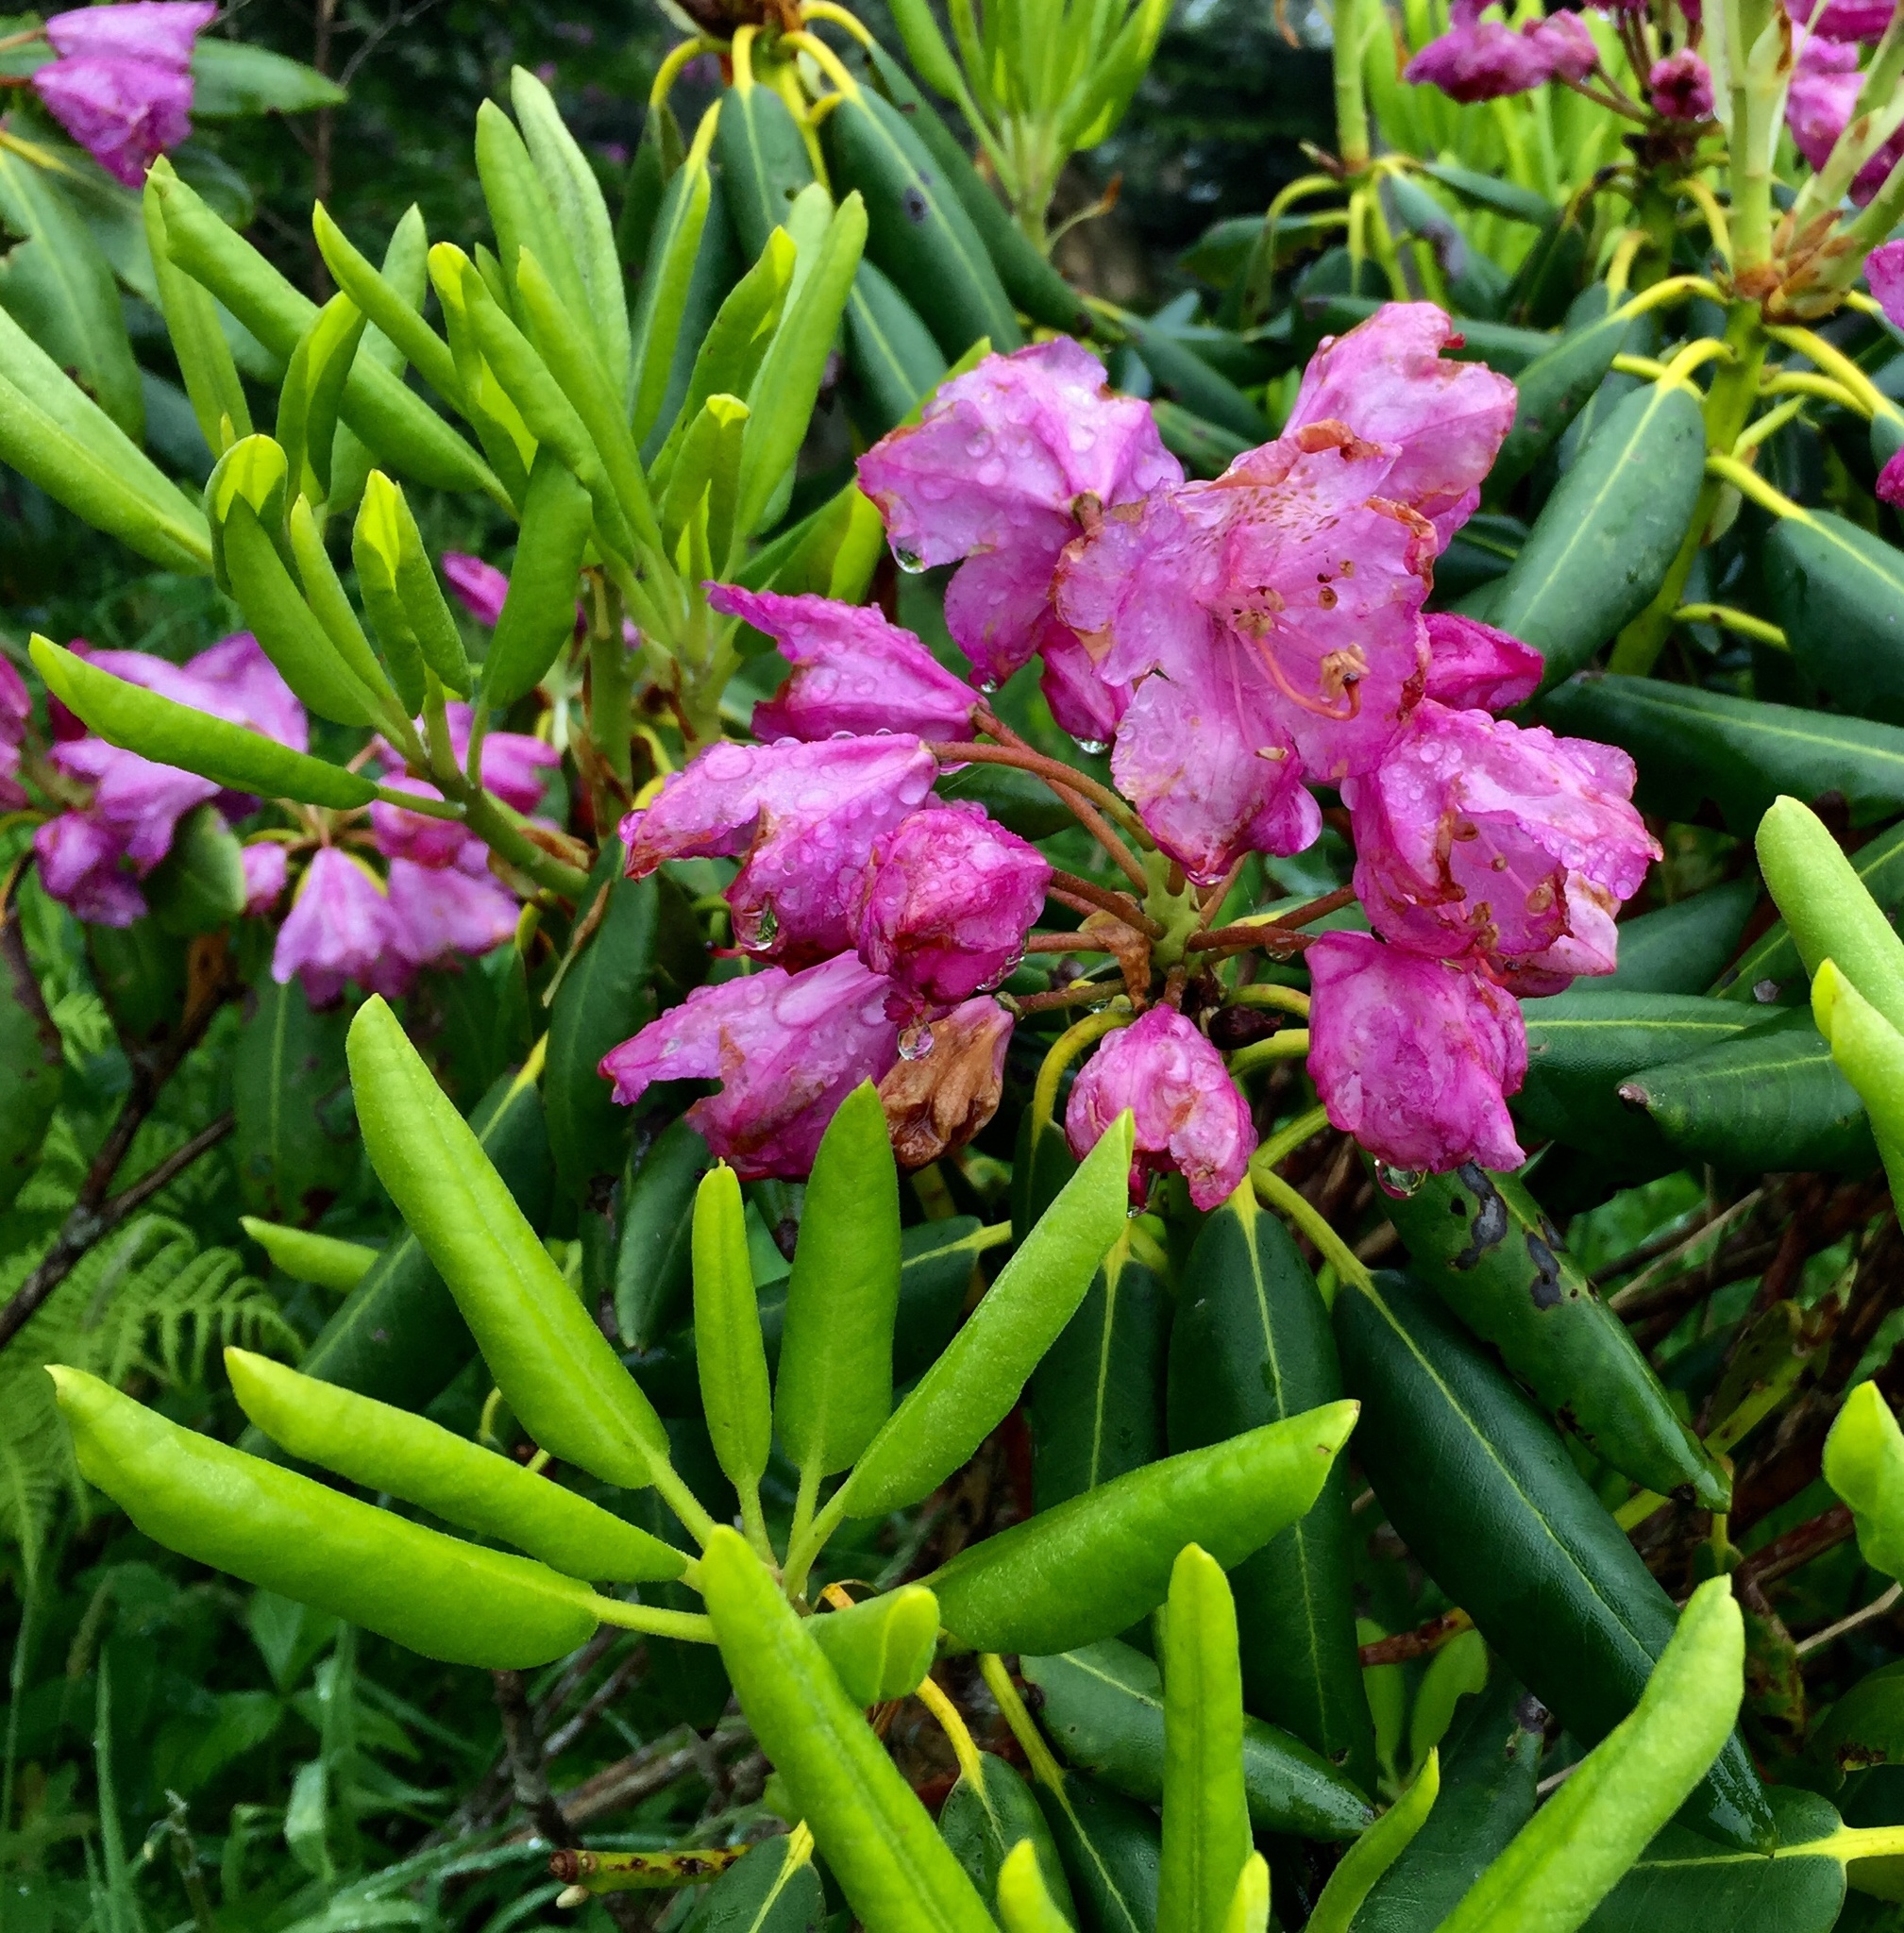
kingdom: Plantae
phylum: Tracheophyta
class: Magnoliopsida
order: Ericales
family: Ericaceae
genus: Rhododendron
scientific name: Rhododendron catawbiense
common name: Catawba rhododendron
